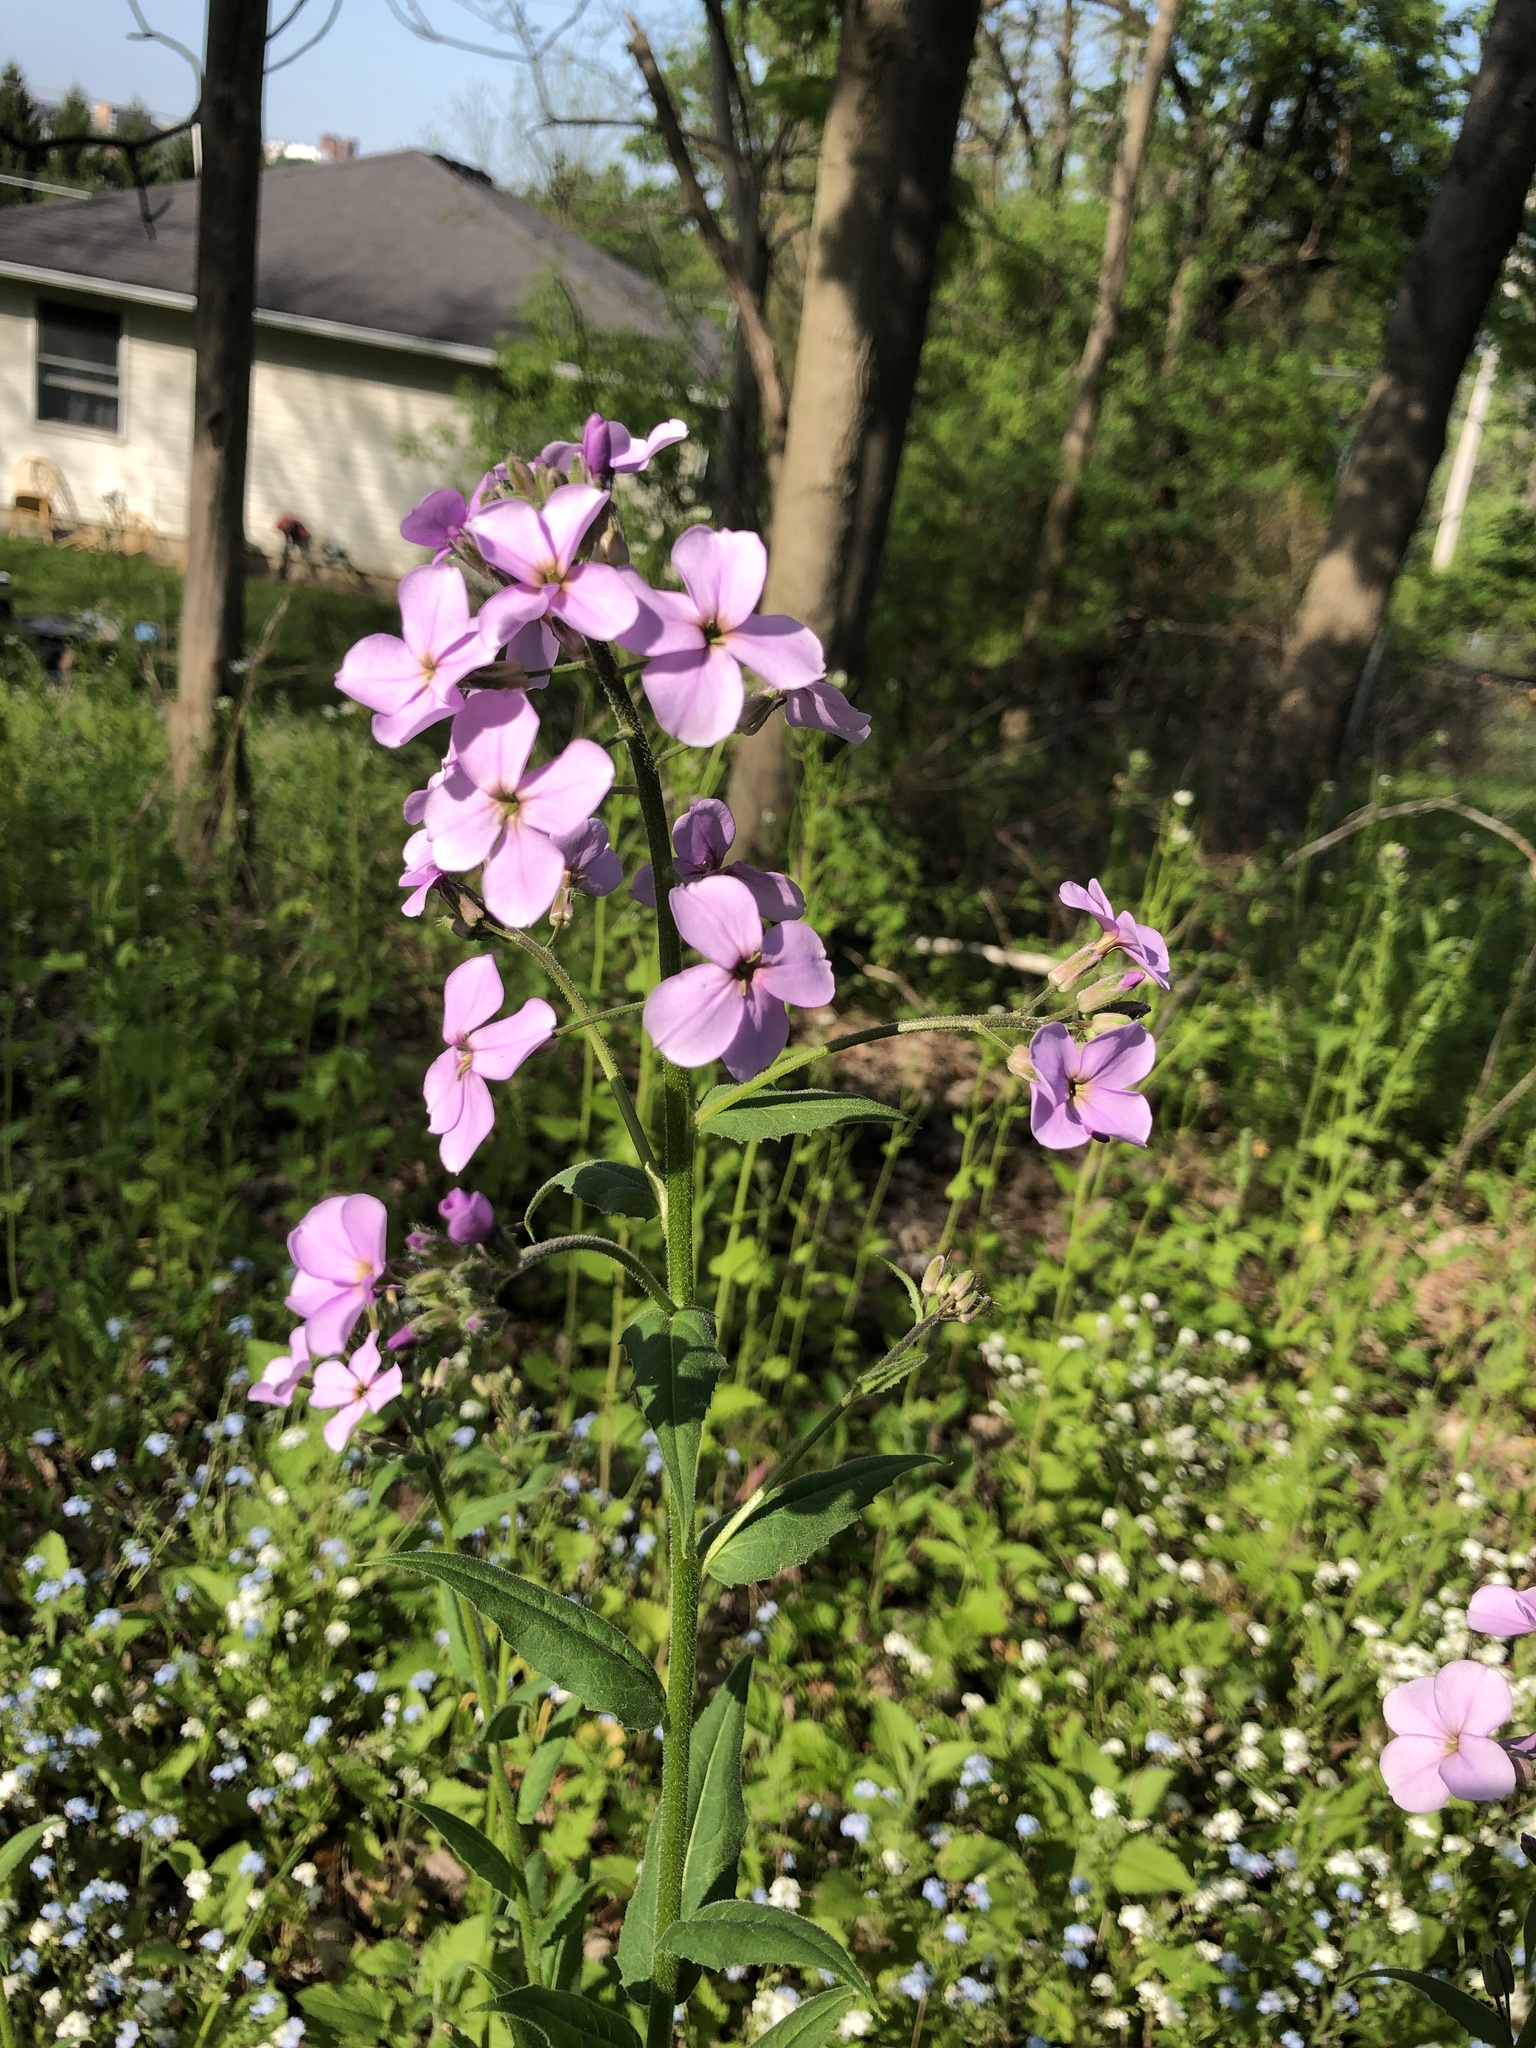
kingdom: Plantae
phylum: Tracheophyta
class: Magnoliopsida
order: Brassicales
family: Brassicaceae
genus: Hesperis
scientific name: Hesperis matronalis
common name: Dame's-violet
